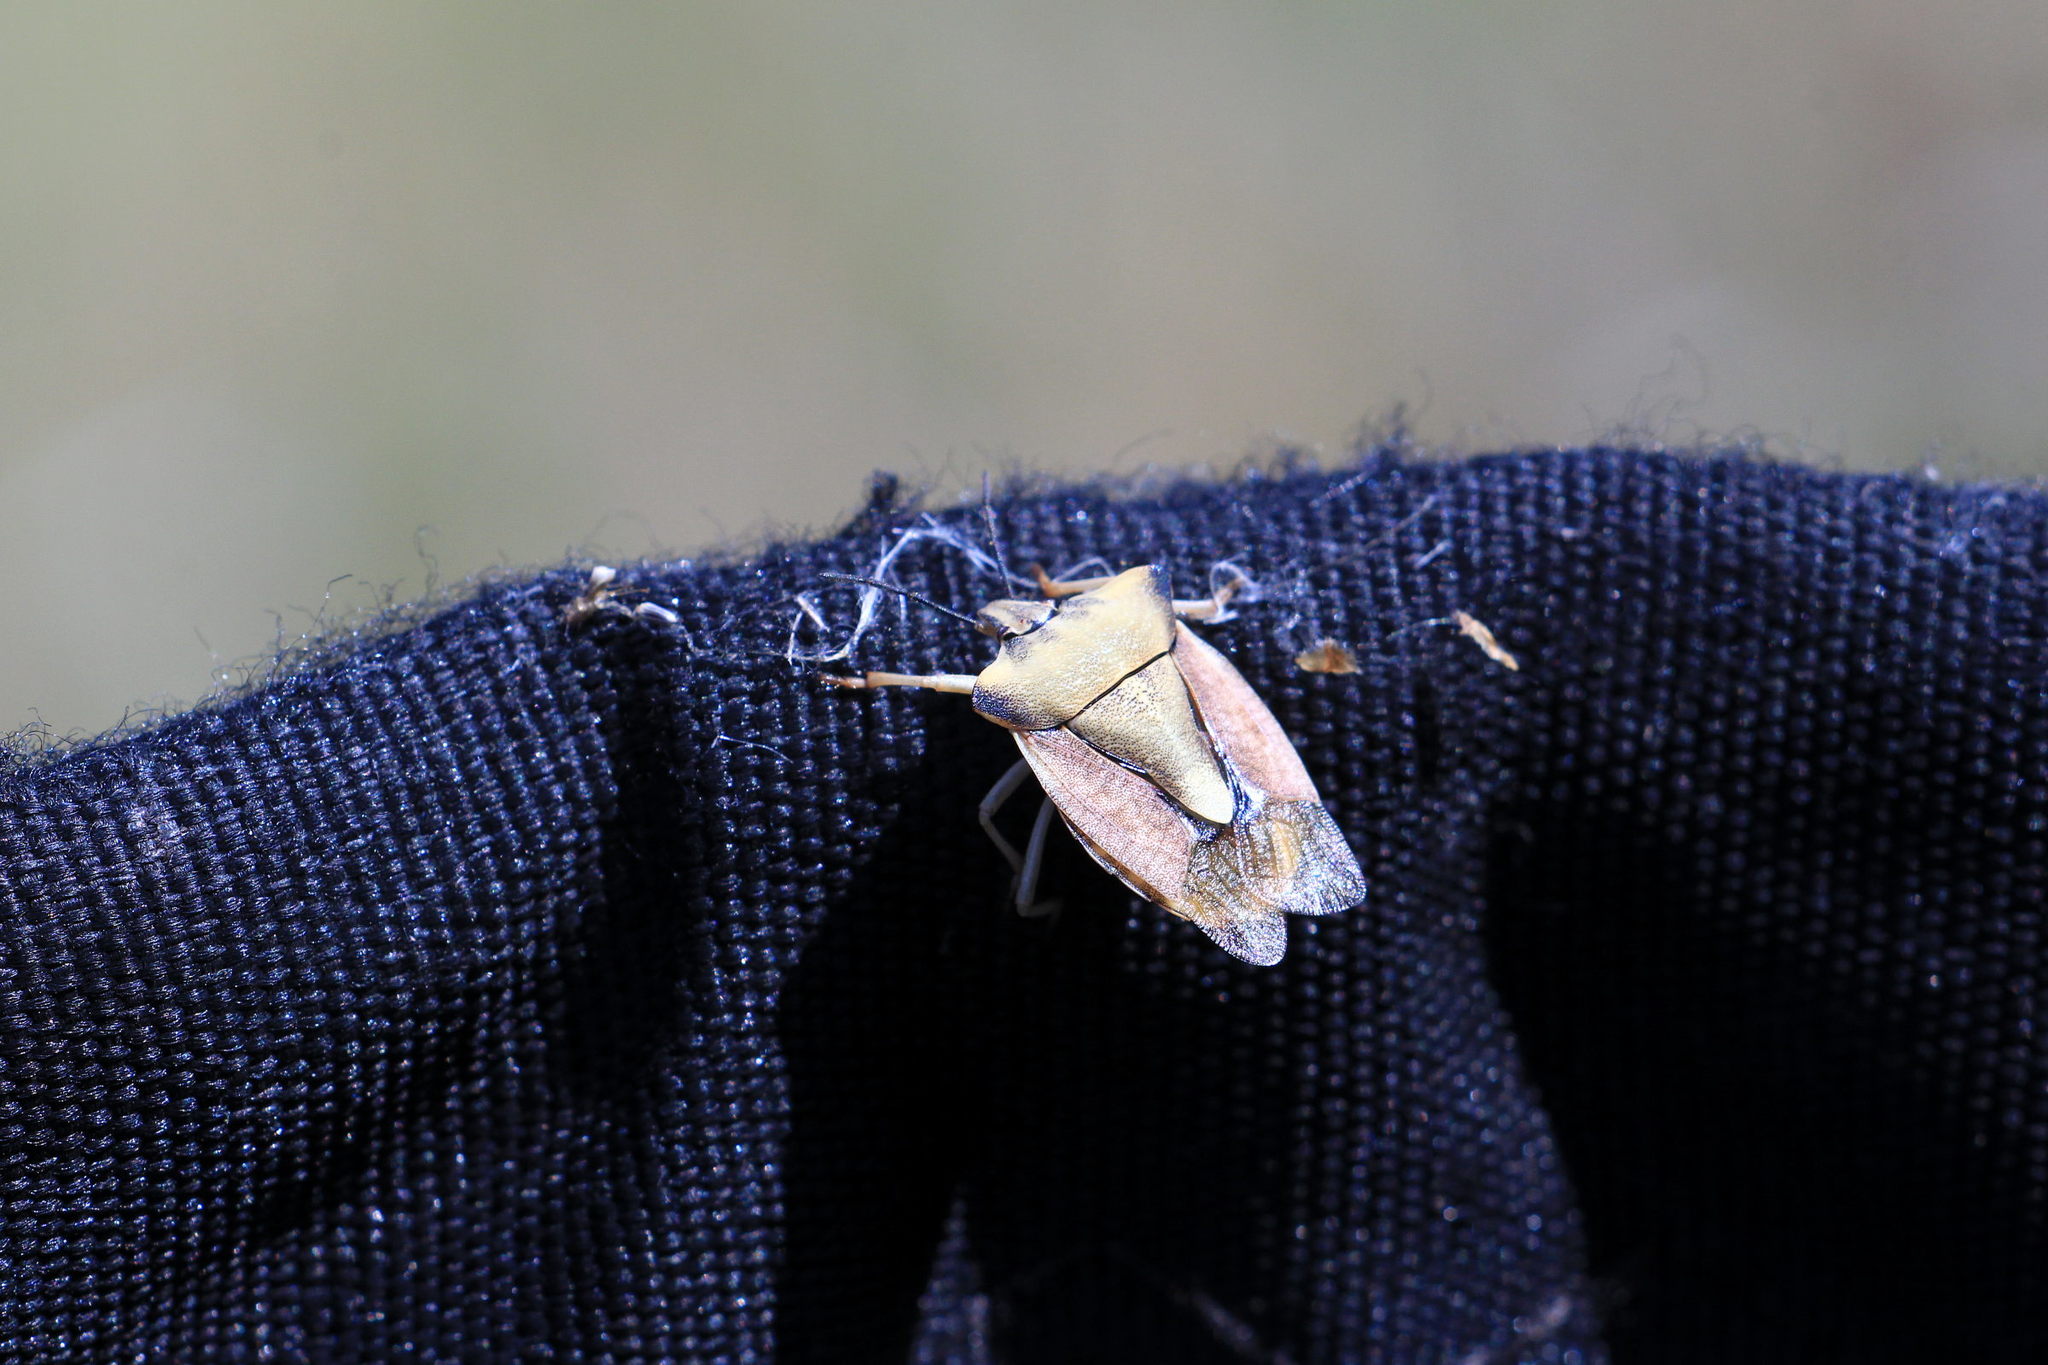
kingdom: Animalia
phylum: Arthropoda
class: Insecta
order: Hemiptera
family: Pentatomidae
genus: Carpocoris
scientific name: Carpocoris fuscispinus
